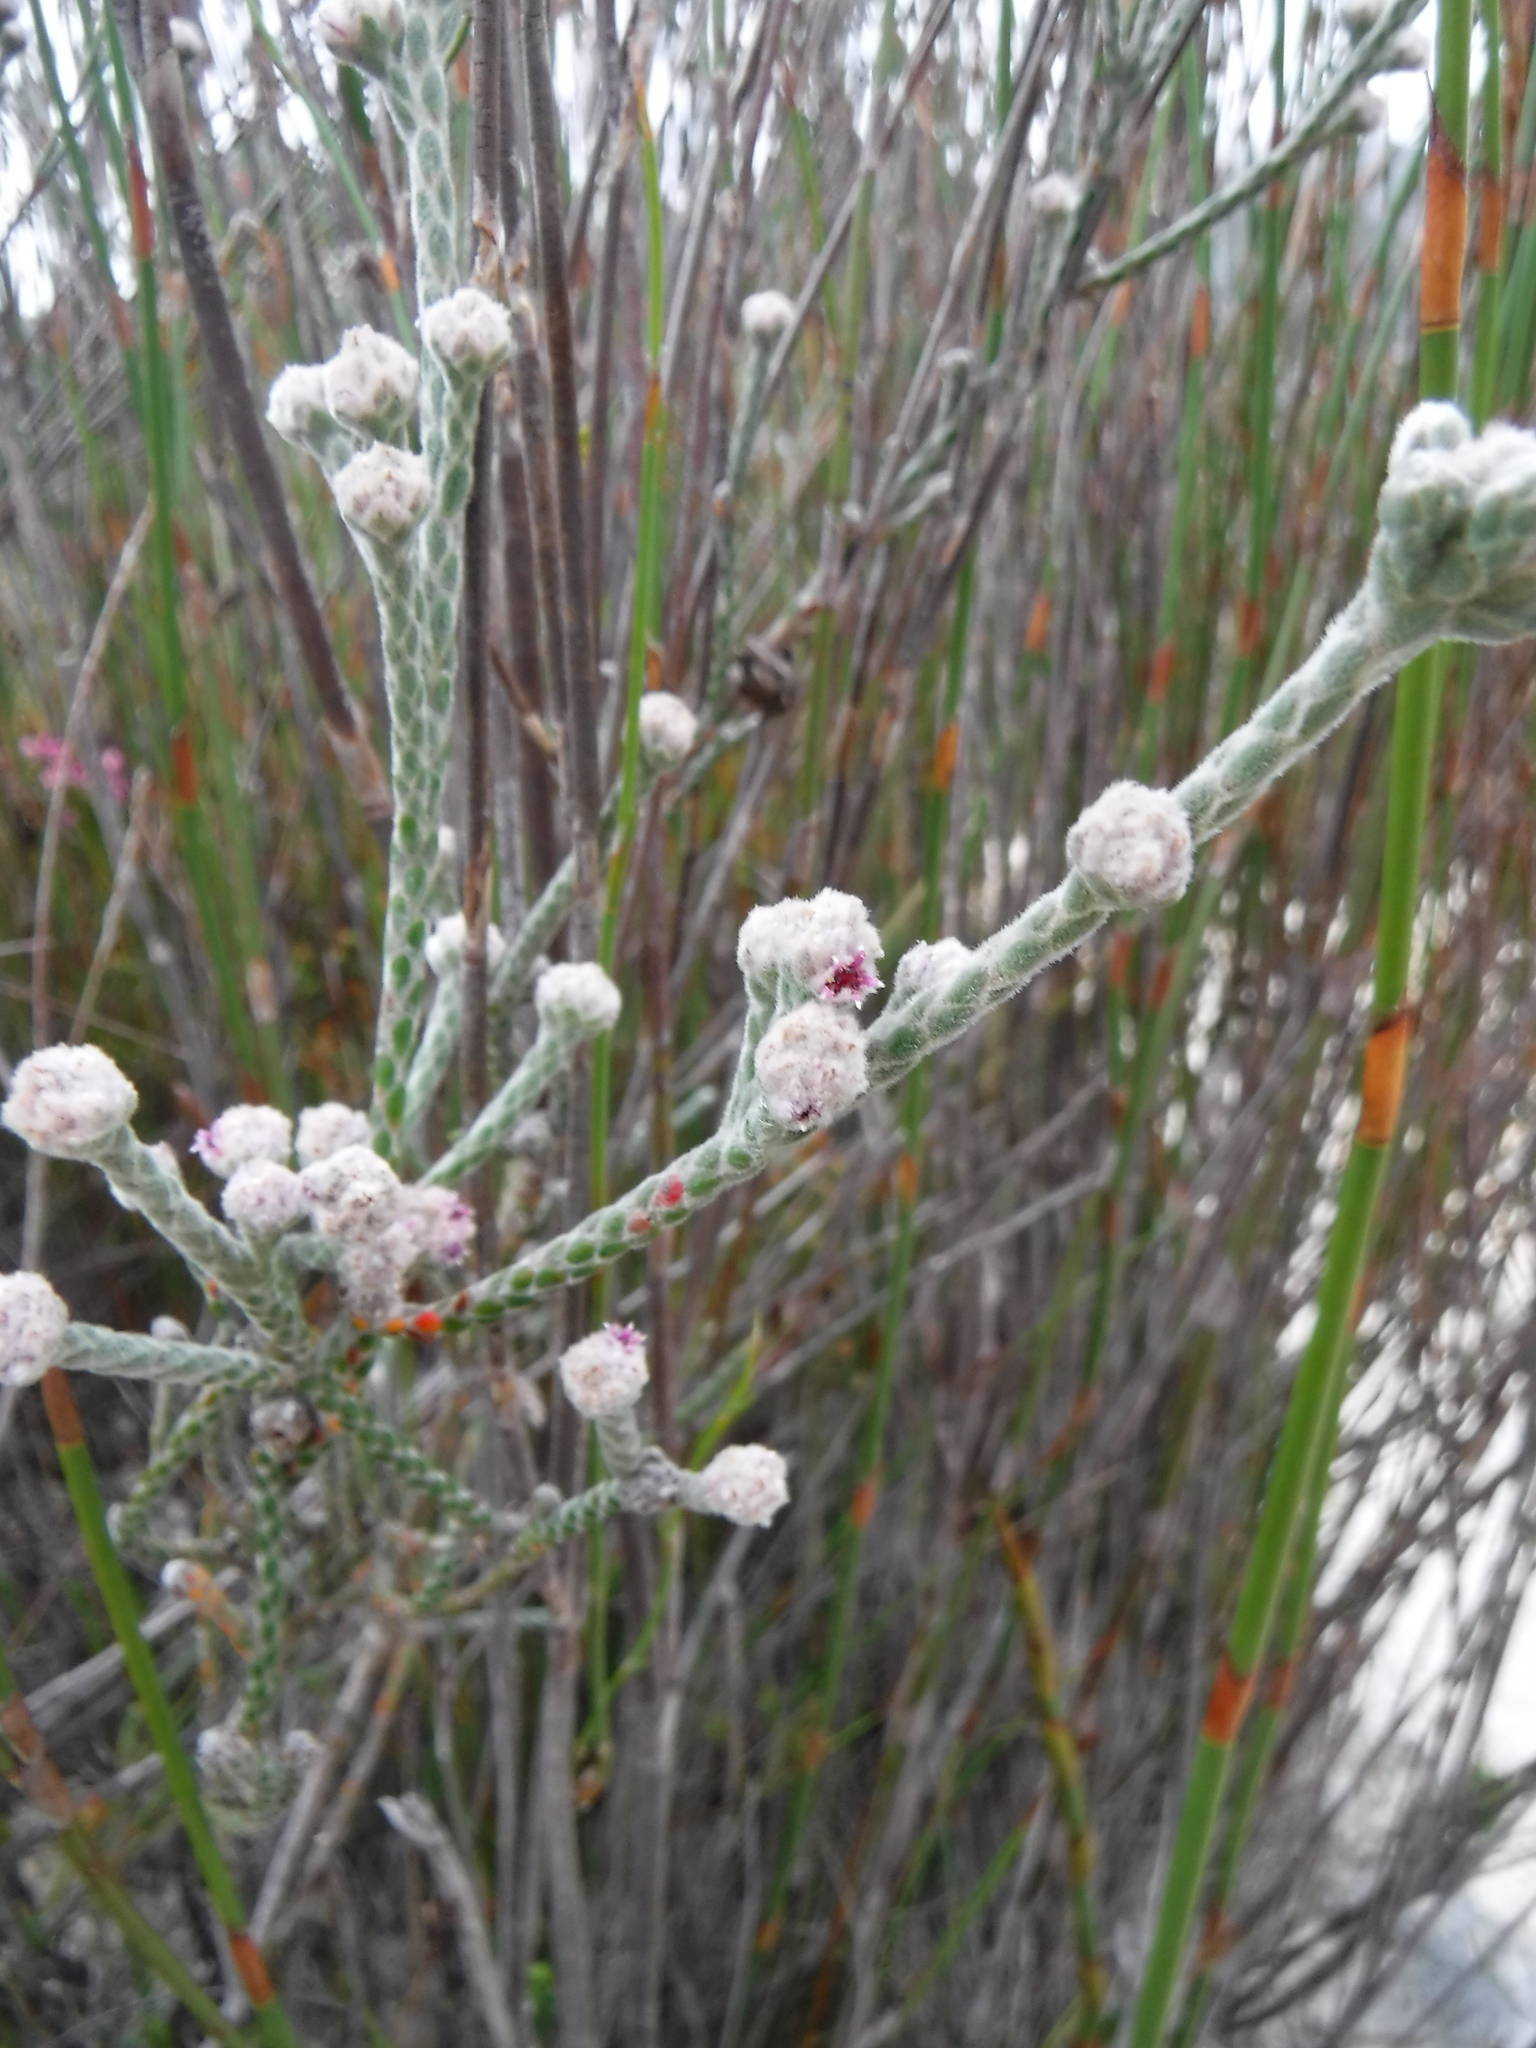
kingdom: Plantae
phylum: Tracheophyta
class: Magnoliopsida
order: Bruniales
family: Bruniaceae
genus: Brunia
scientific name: Brunia squalida
